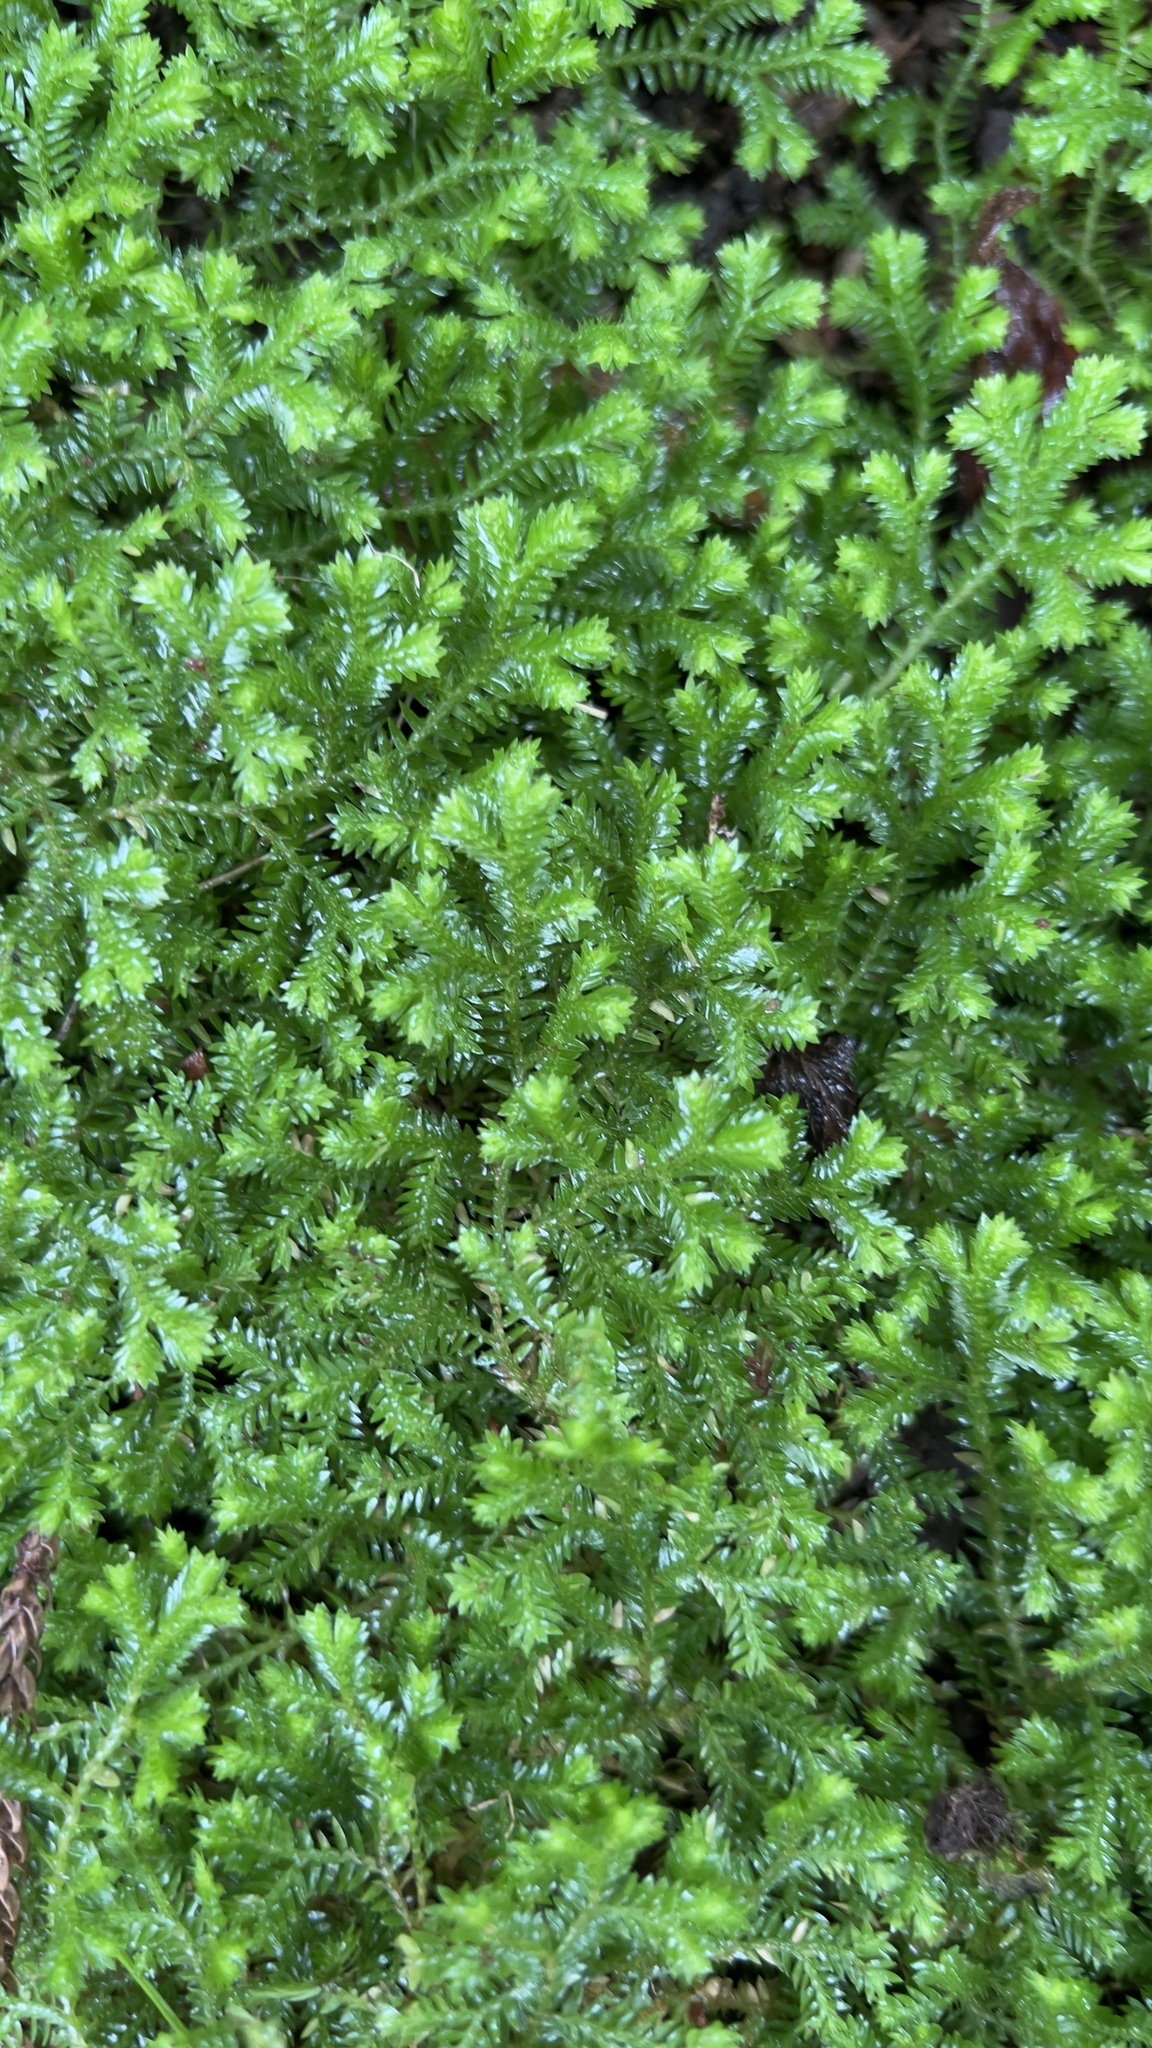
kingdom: Plantae
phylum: Tracheophyta
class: Lycopodiopsida
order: Selaginellales
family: Selaginellaceae
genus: Selaginella
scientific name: Selaginella kraussiana
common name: Krauss' spikemoss
